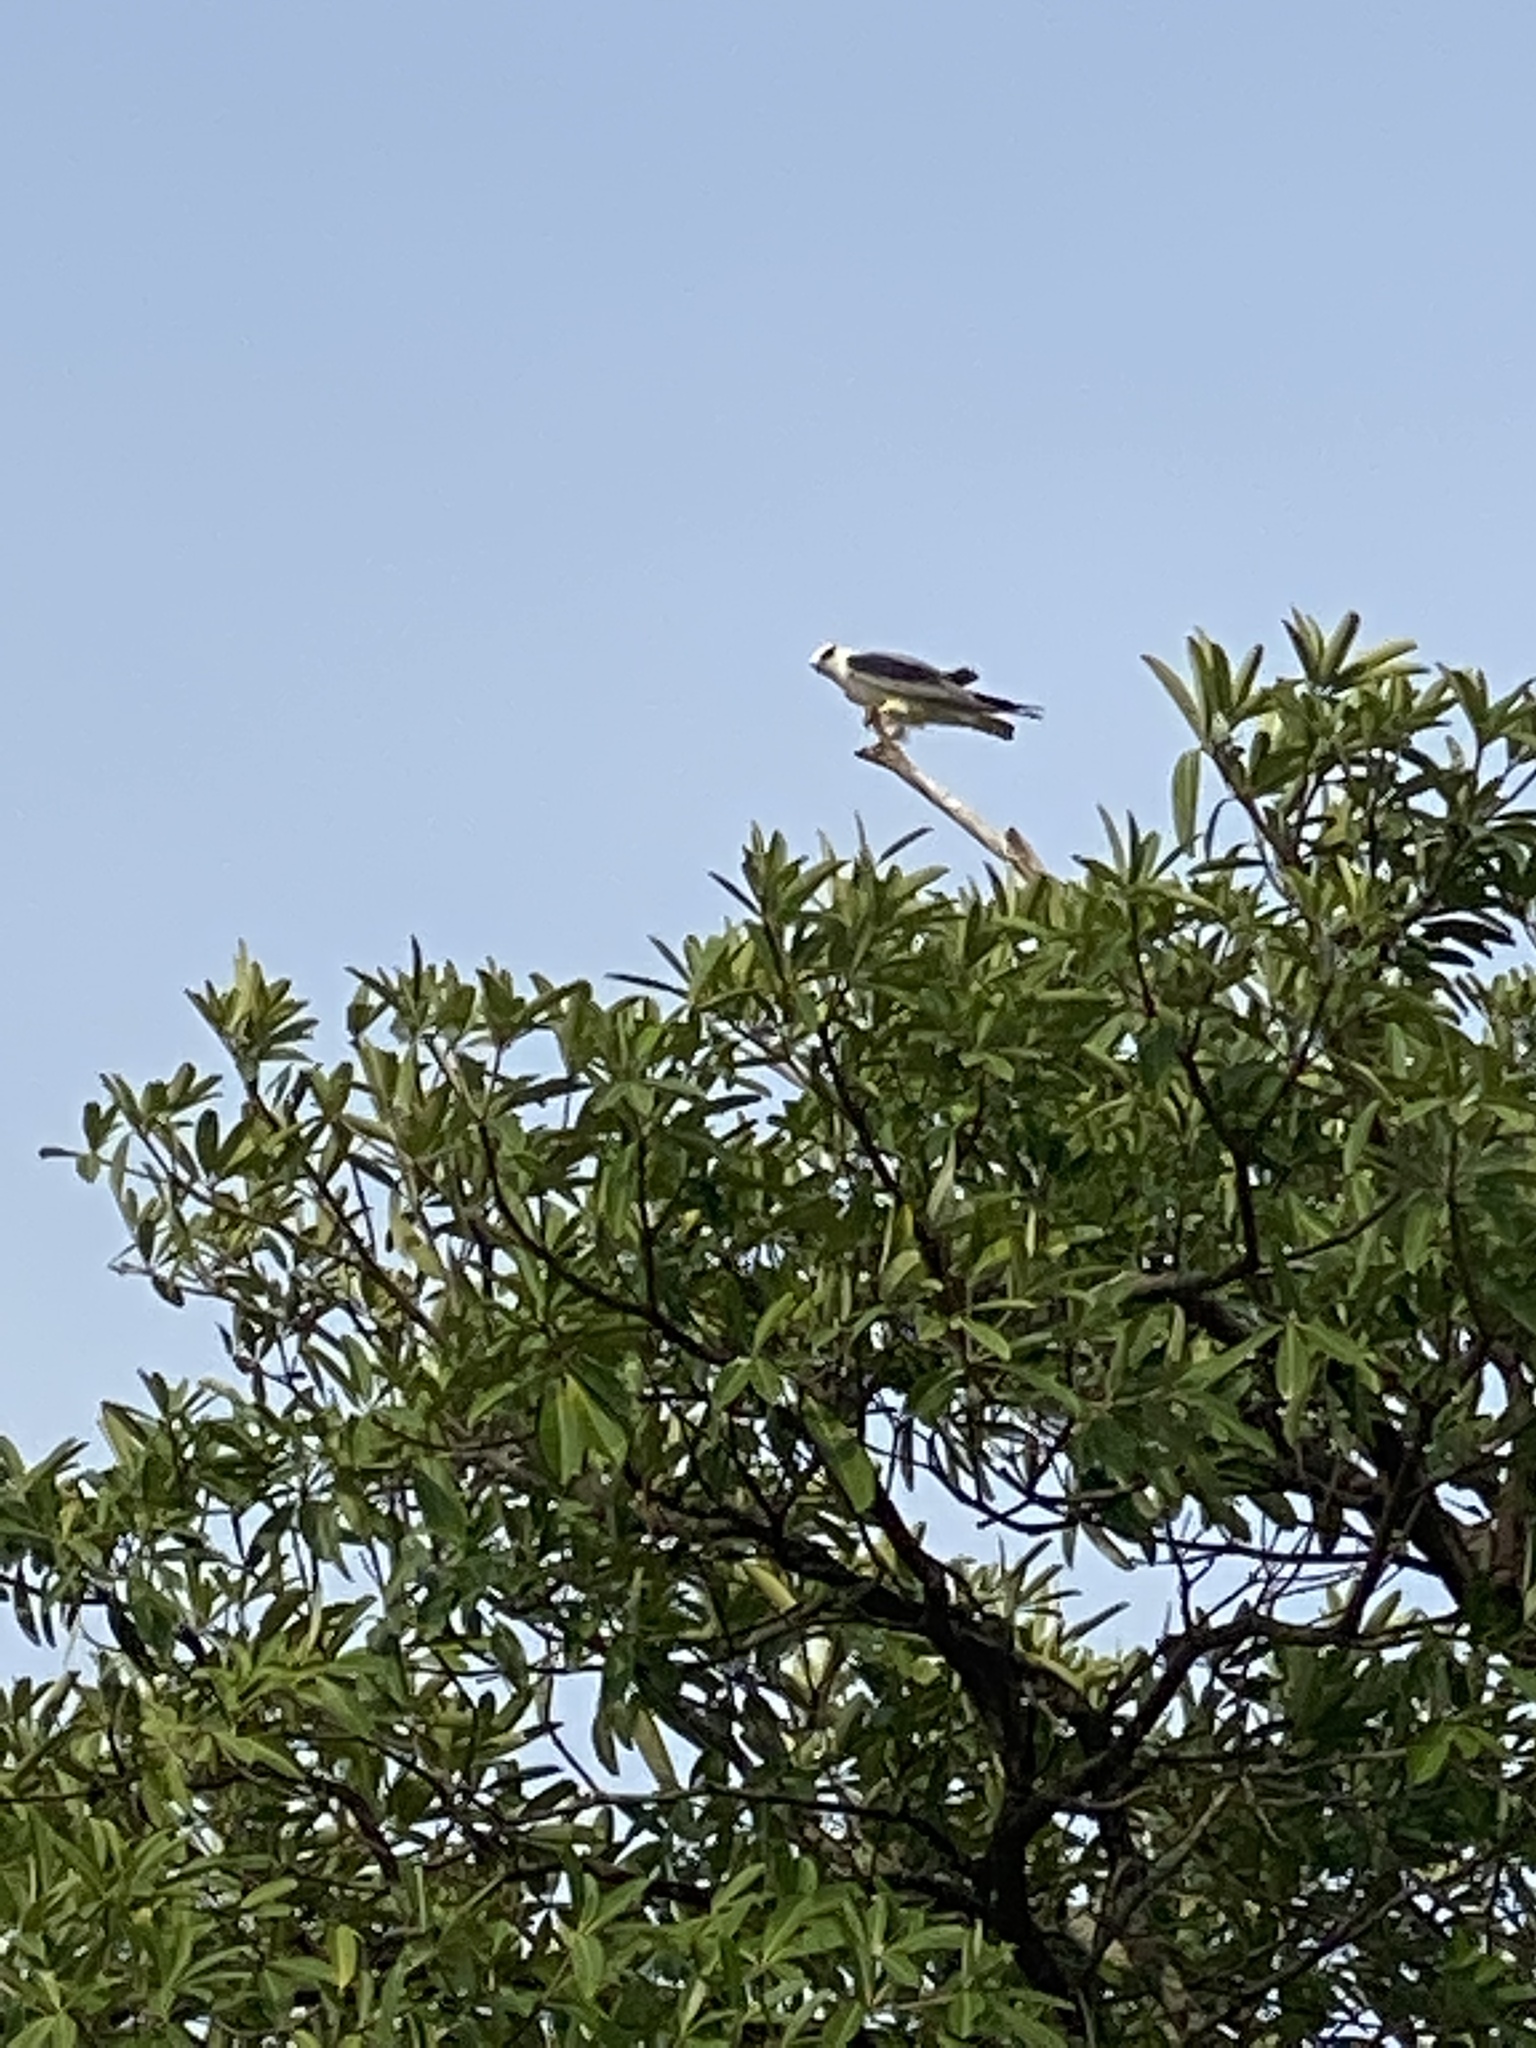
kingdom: Animalia
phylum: Chordata
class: Aves
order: Accipitriformes
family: Accipitridae
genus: Elanus
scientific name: Elanus caeruleus
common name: Black-winged kite
